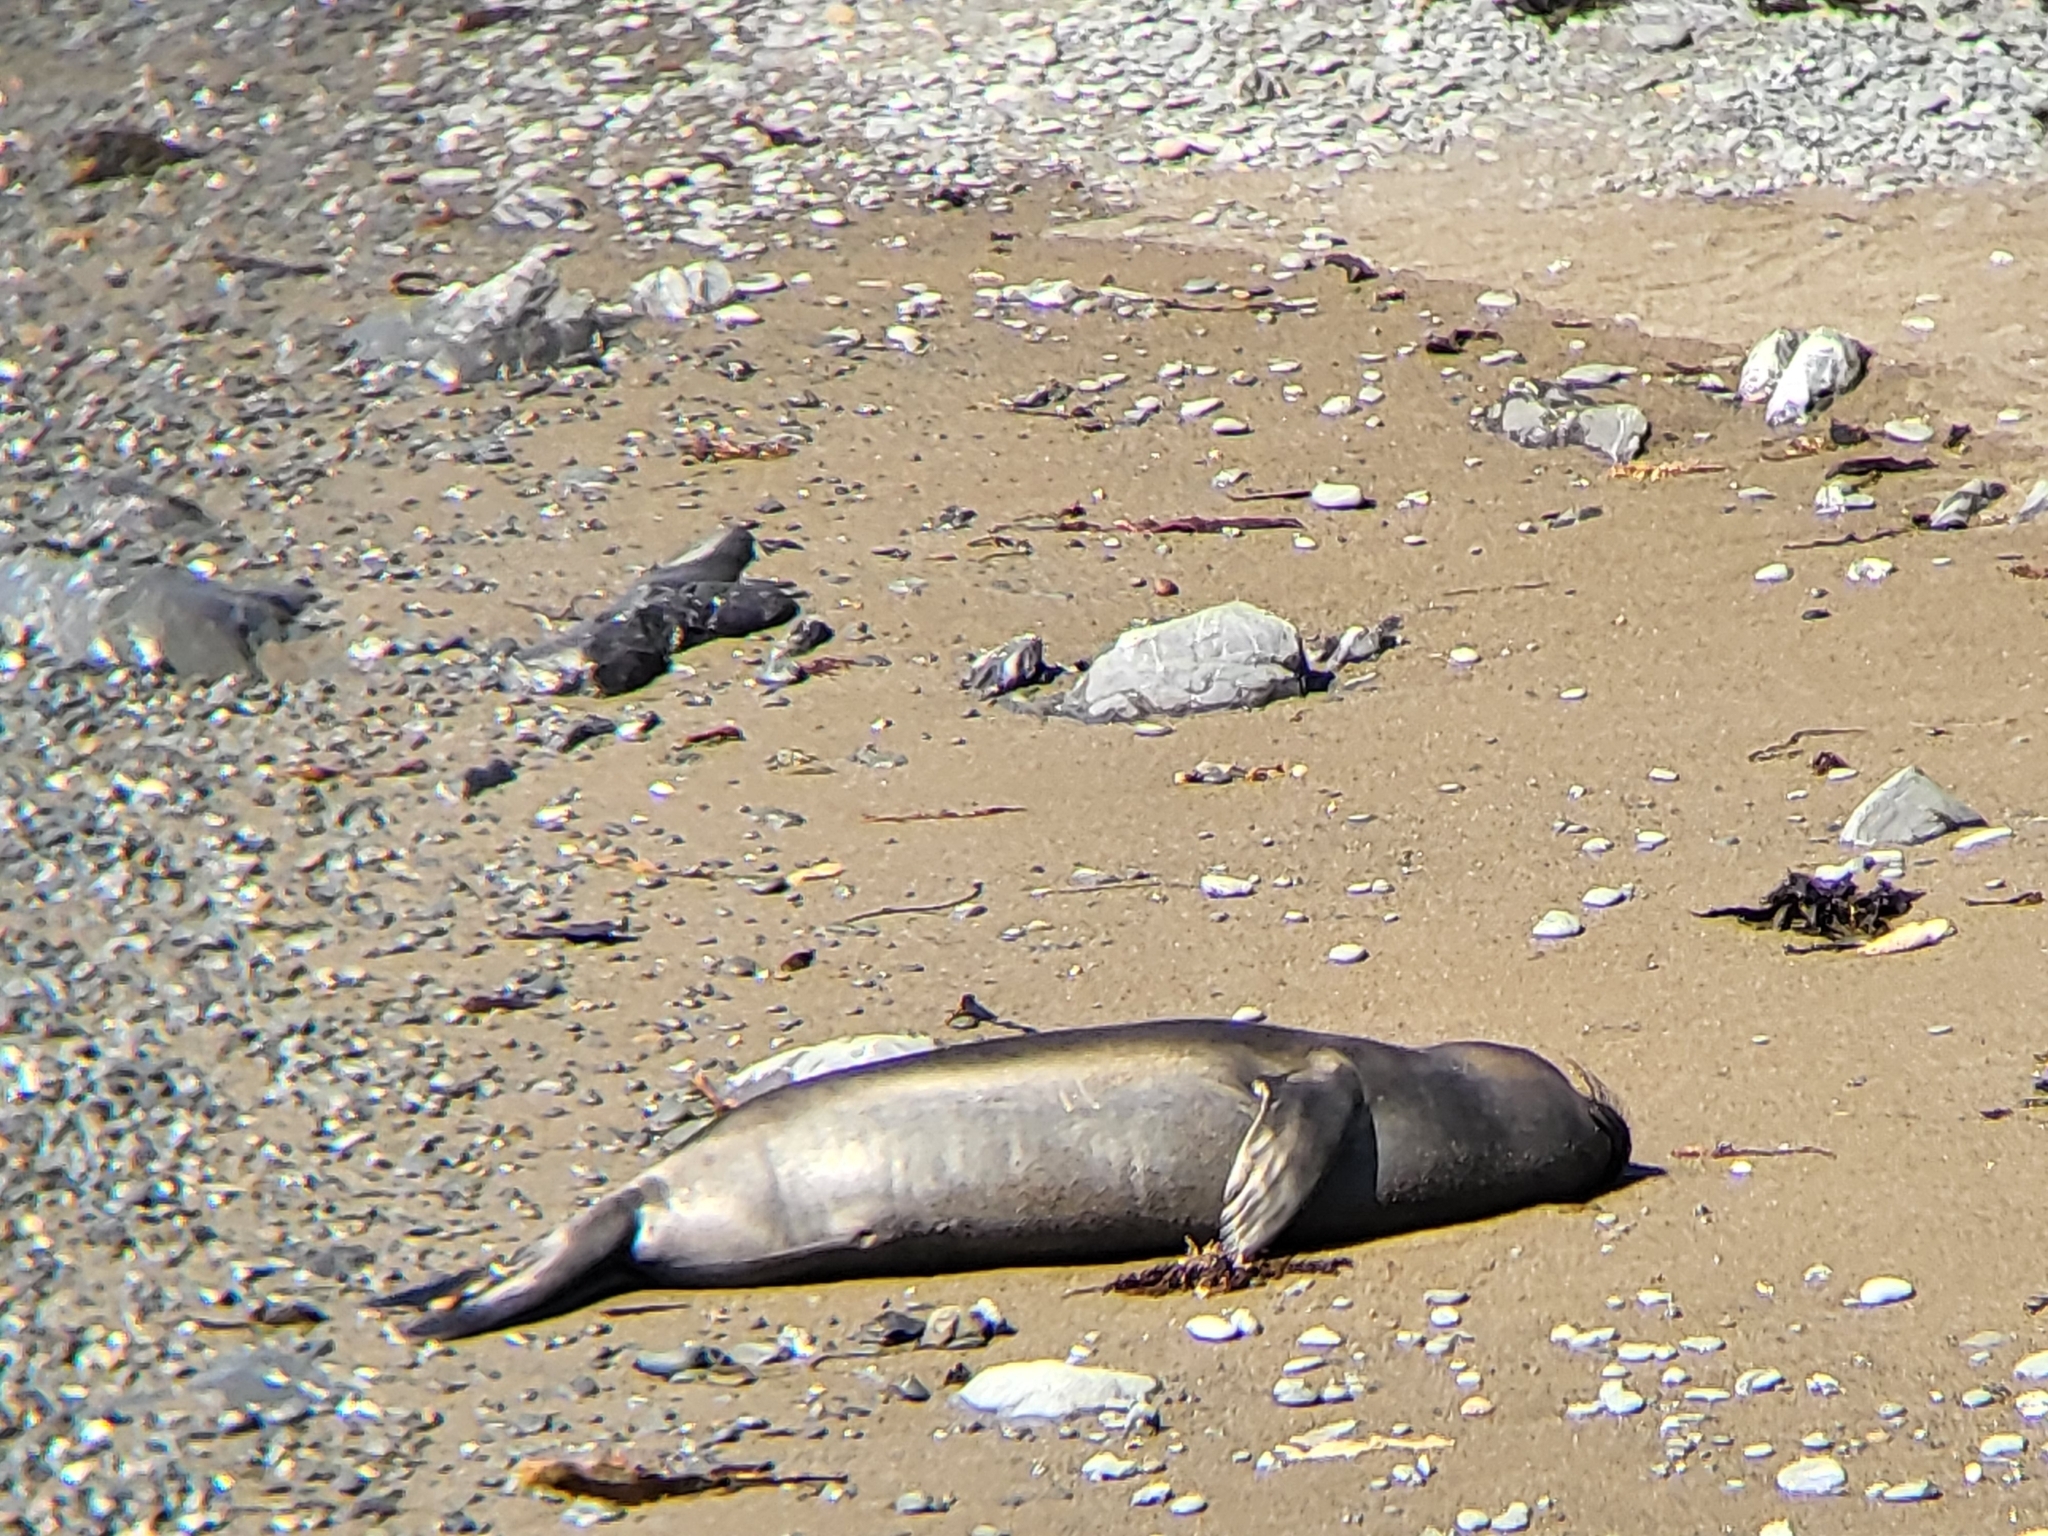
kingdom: Animalia
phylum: Chordata
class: Mammalia
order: Carnivora
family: Phocidae
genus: Mirounga
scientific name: Mirounga angustirostris
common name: Northern elephant seal
